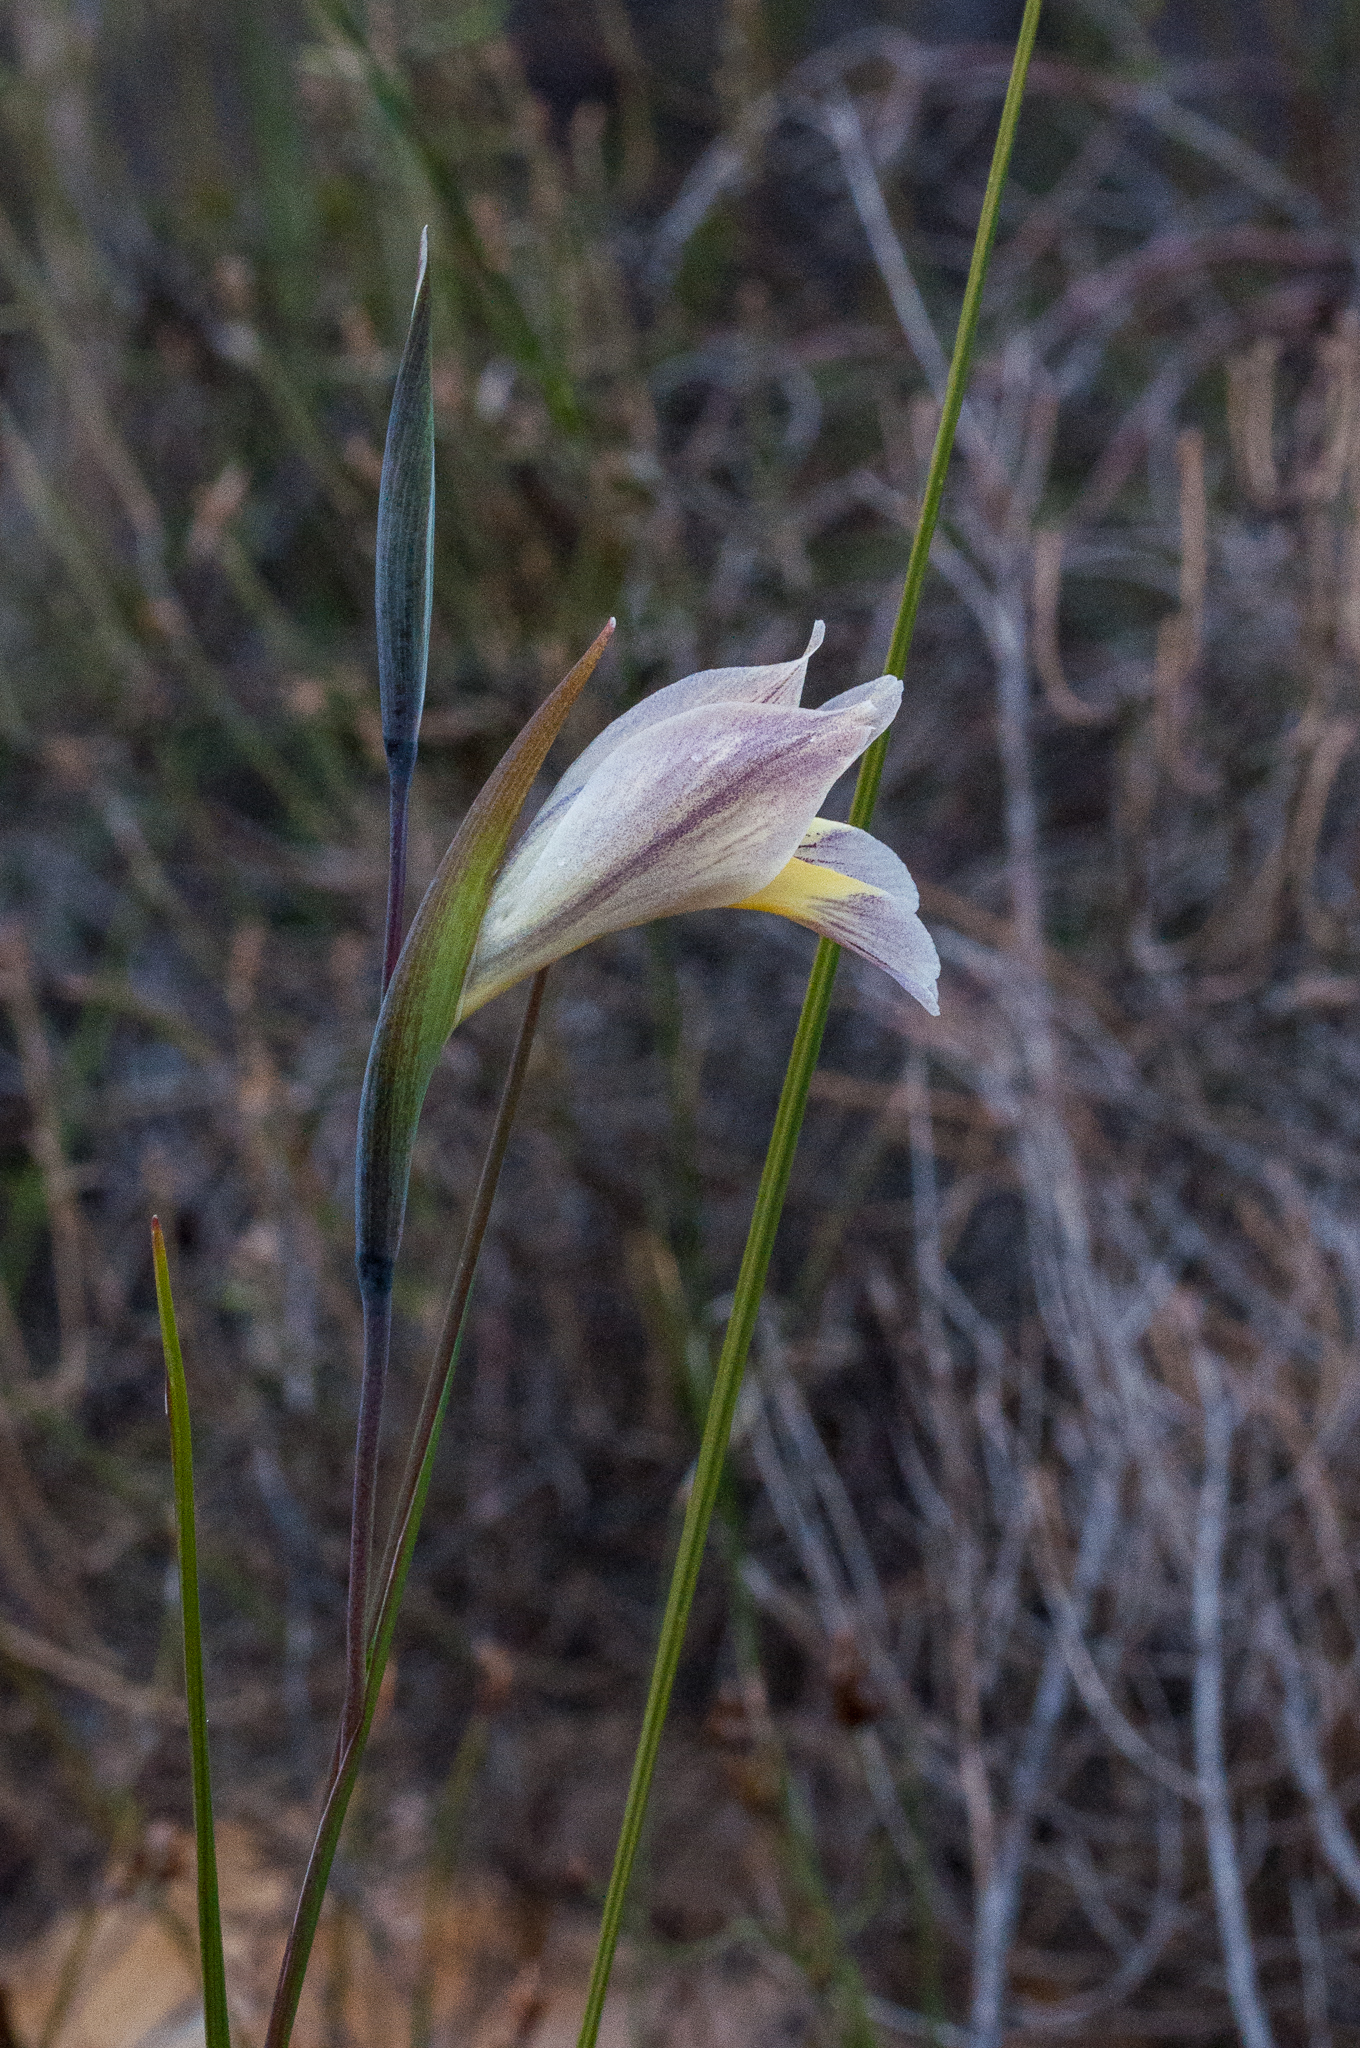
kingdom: Plantae
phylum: Tracheophyta
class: Liliopsida
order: Asparagales
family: Iridaceae
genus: Gladiolus
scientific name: Gladiolus carinatus
